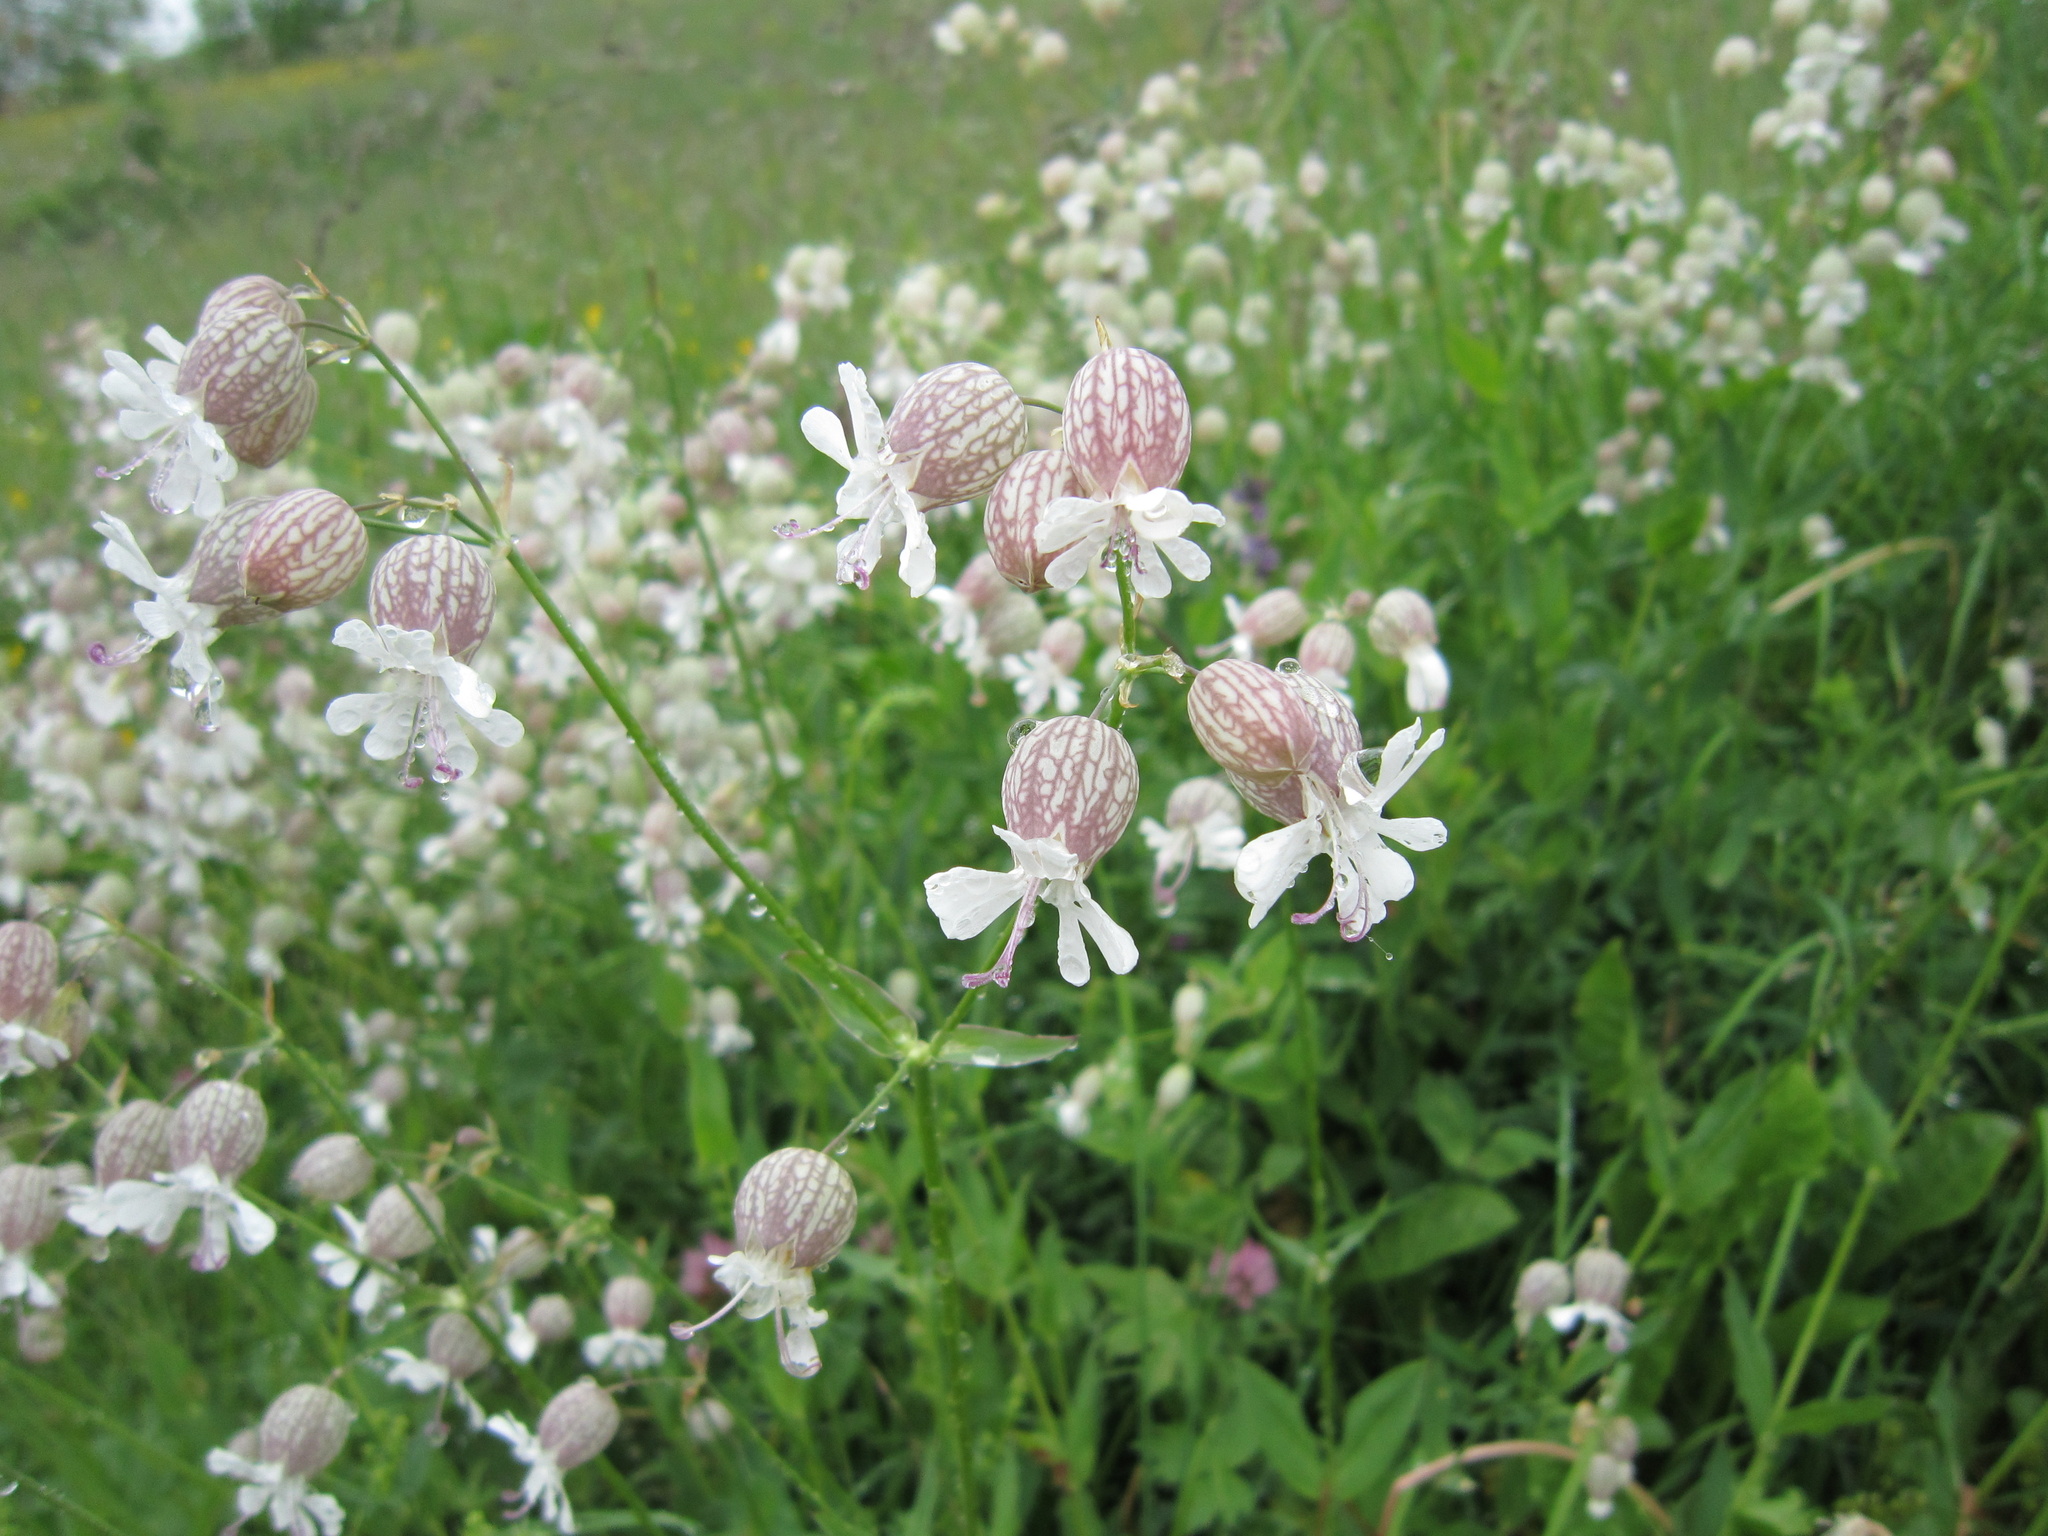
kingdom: Plantae
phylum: Tracheophyta
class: Magnoliopsida
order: Caryophyllales
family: Caryophyllaceae
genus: Silene
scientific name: Silene vulgaris
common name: Bladder campion
